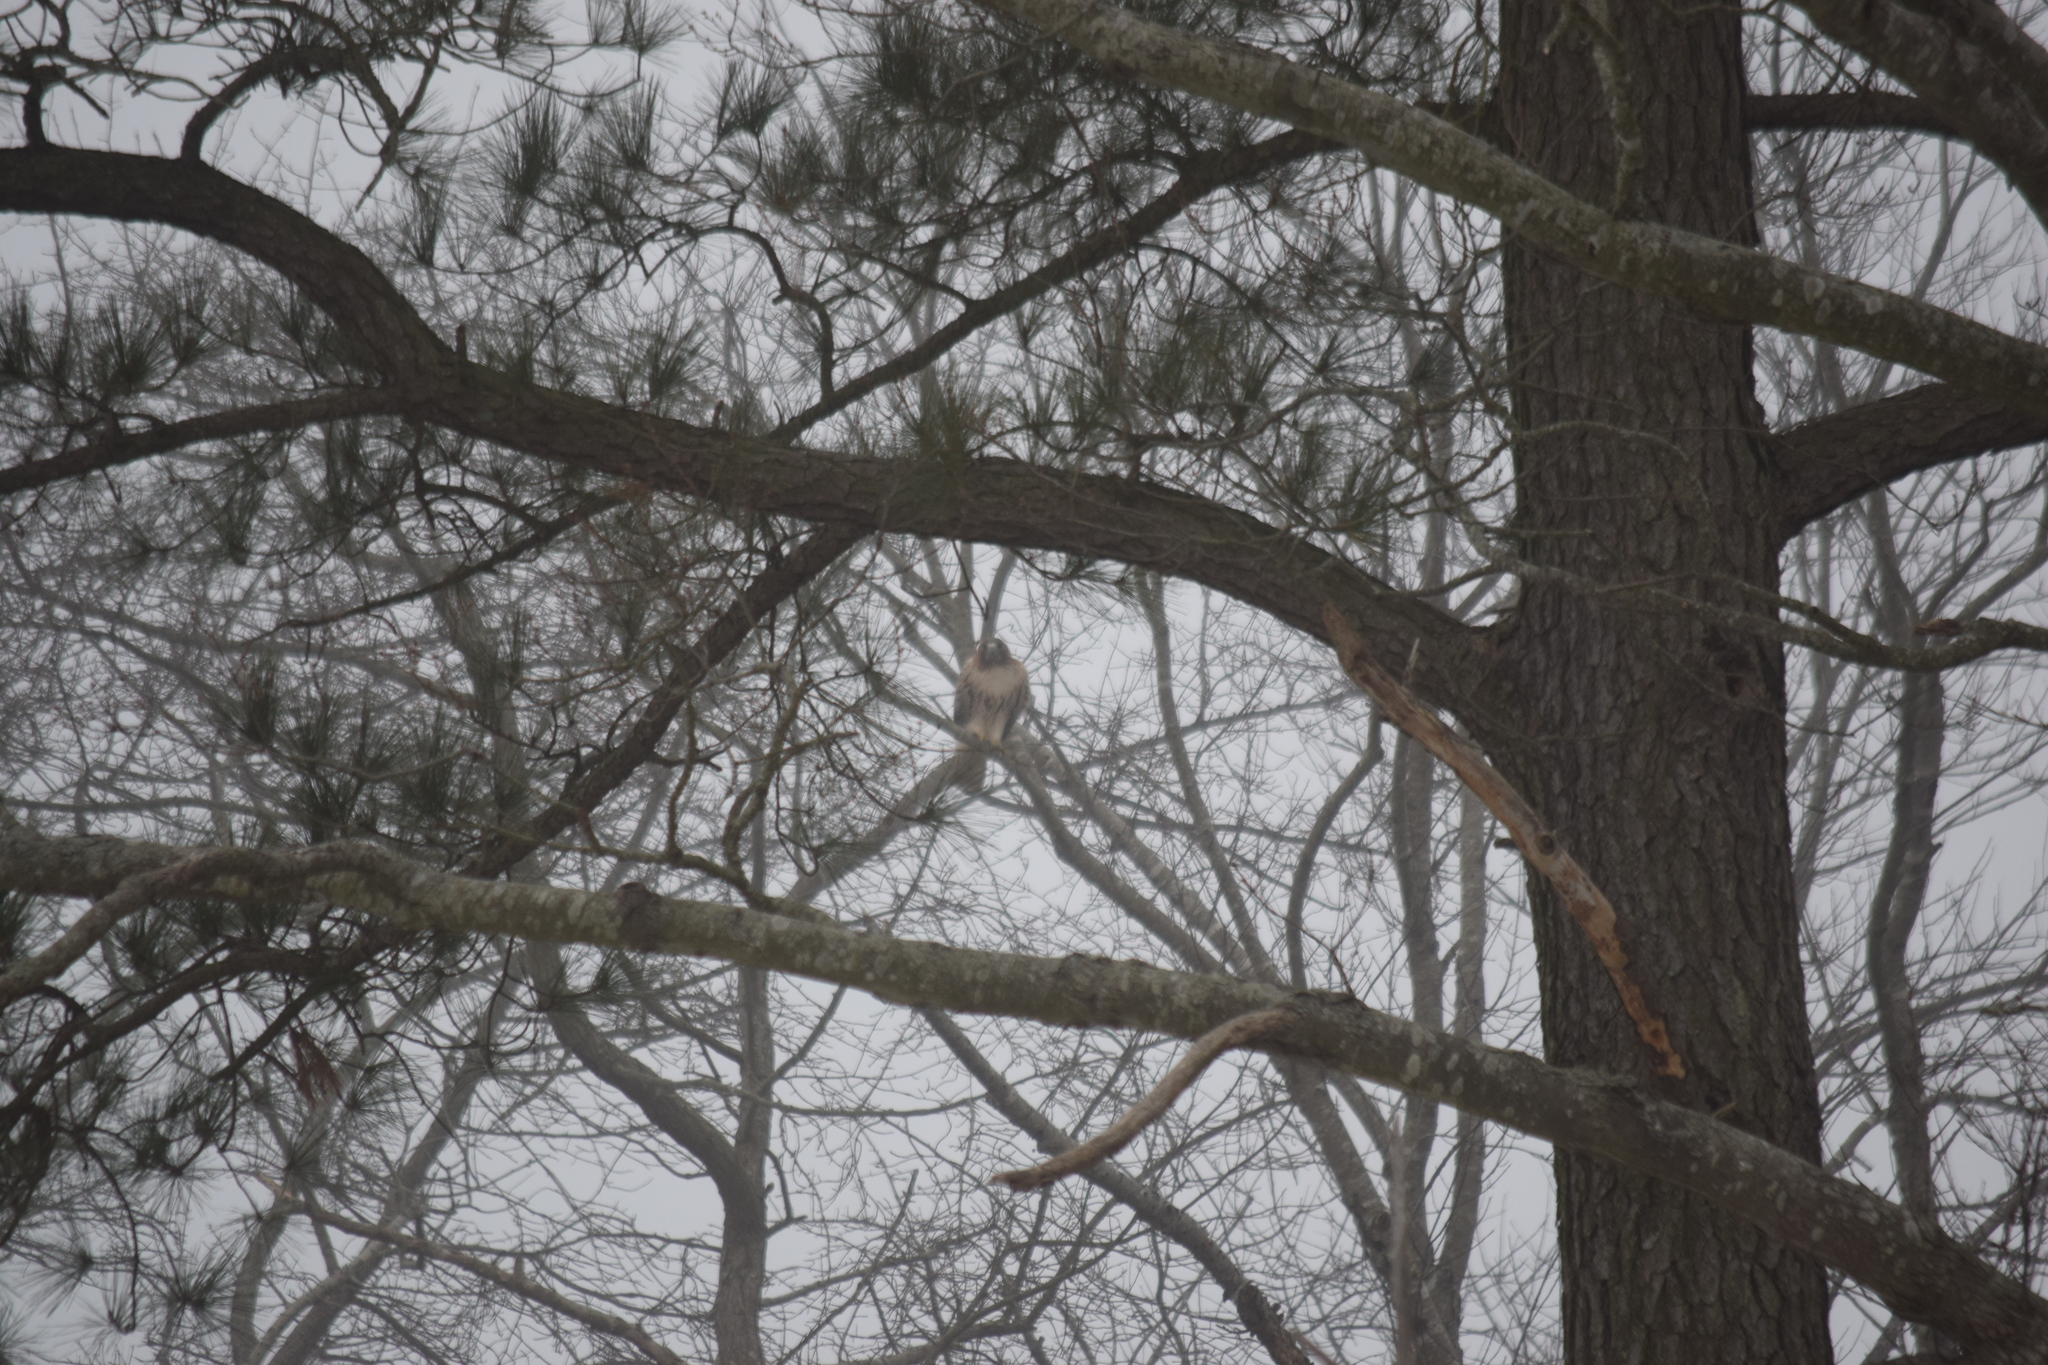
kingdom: Animalia
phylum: Chordata
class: Aves
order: Accipitriformes
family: Accipitridae
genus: Buteo
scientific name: Buteo jamaicensis
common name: Red-tailed hawk
